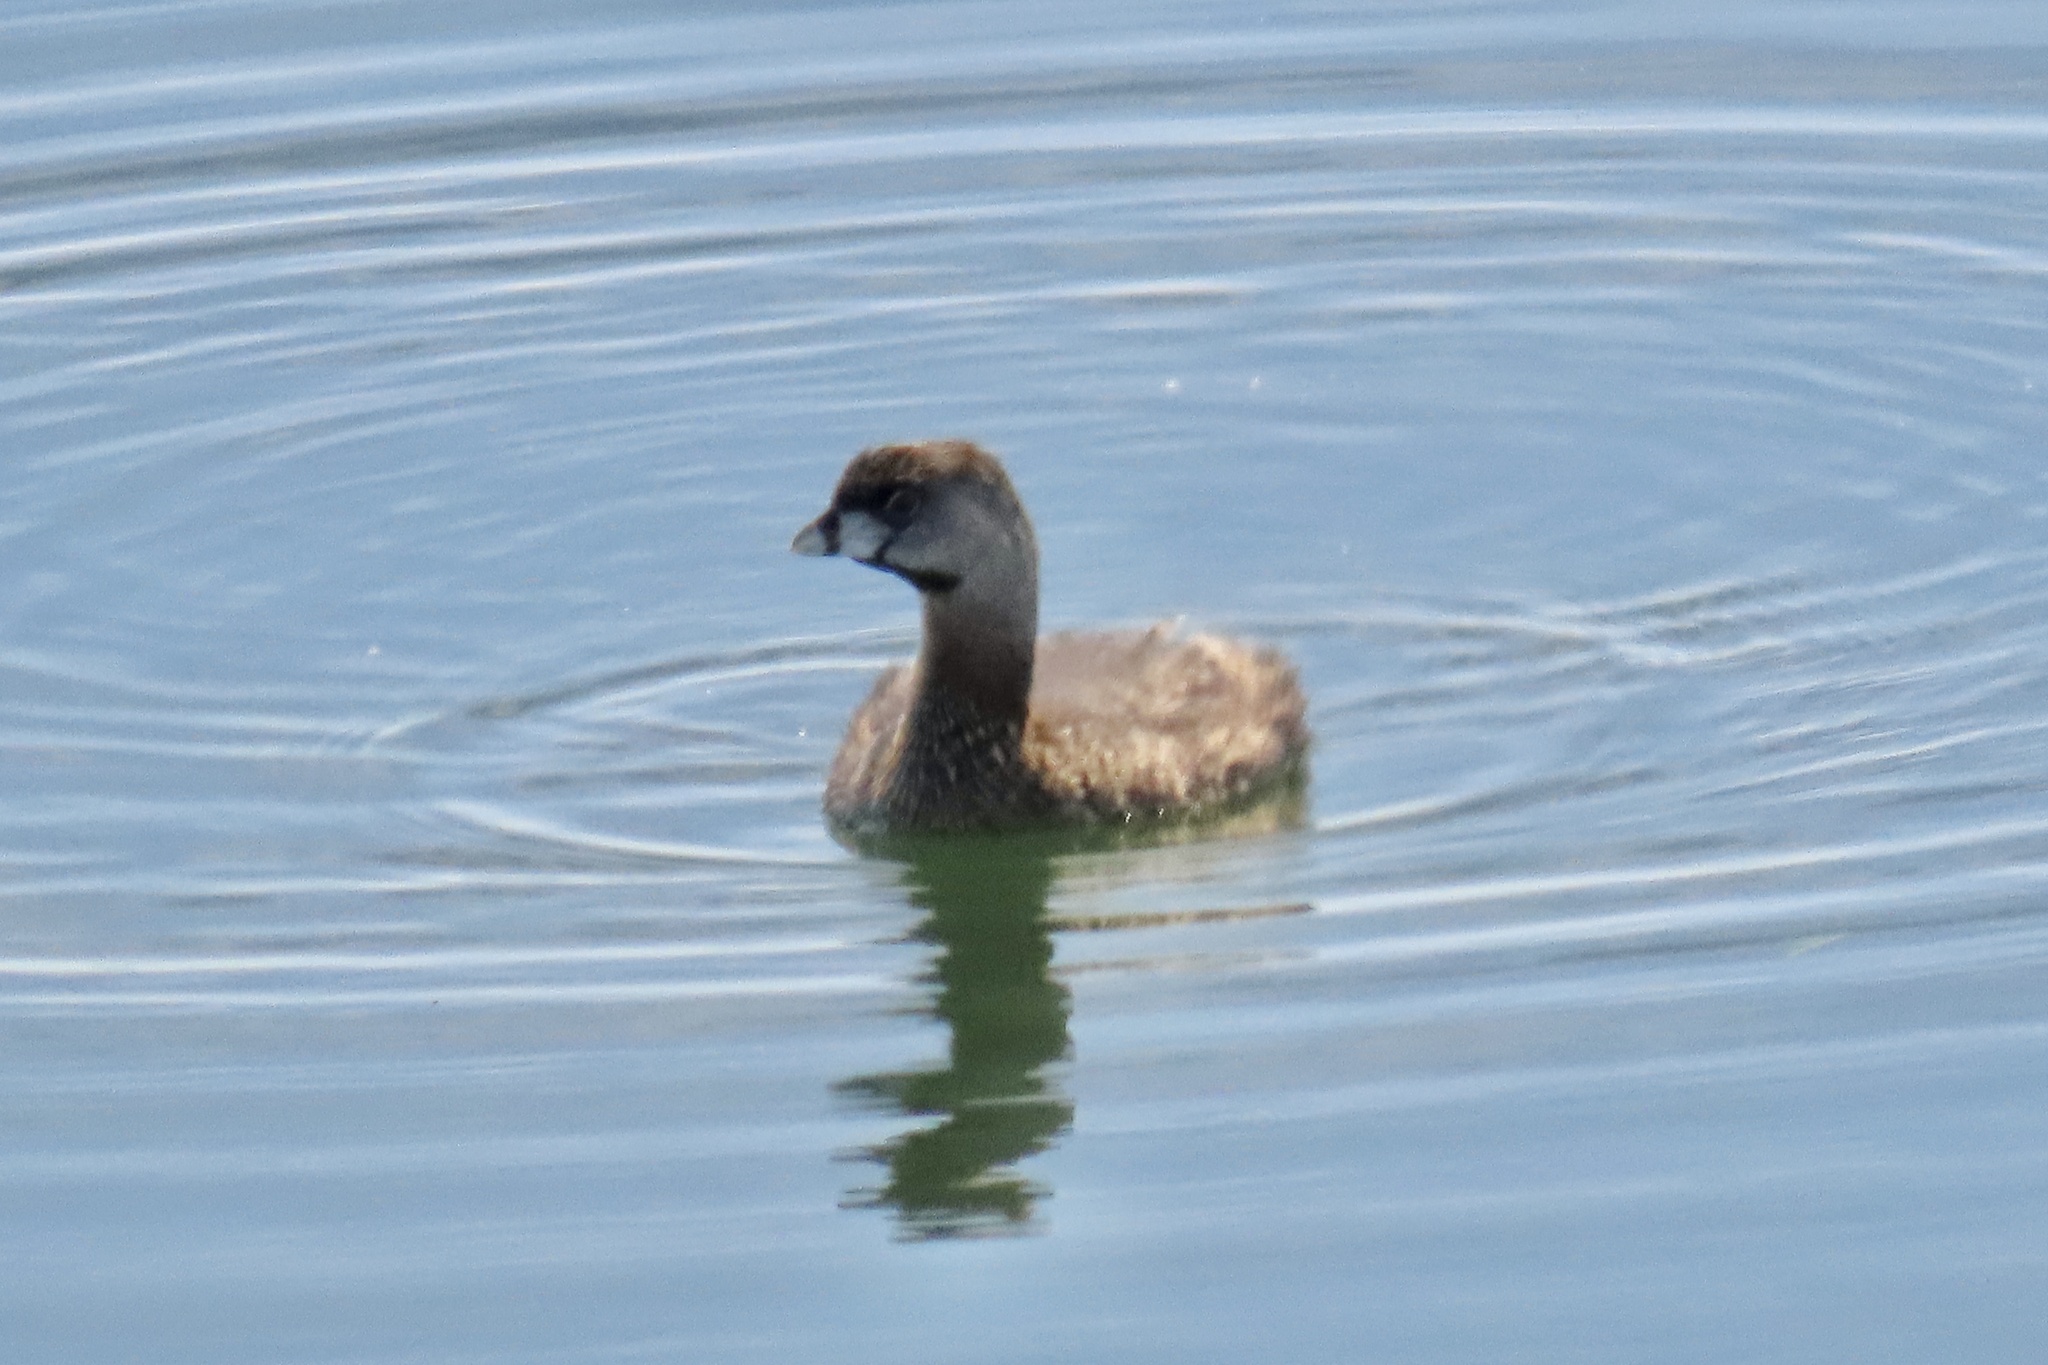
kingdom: Animalia
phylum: Chordata
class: Aves
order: Podicipediformes
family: Podicipedidae
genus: Podilymbus
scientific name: Podilymbus podiceps
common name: Pied-billed grebe
